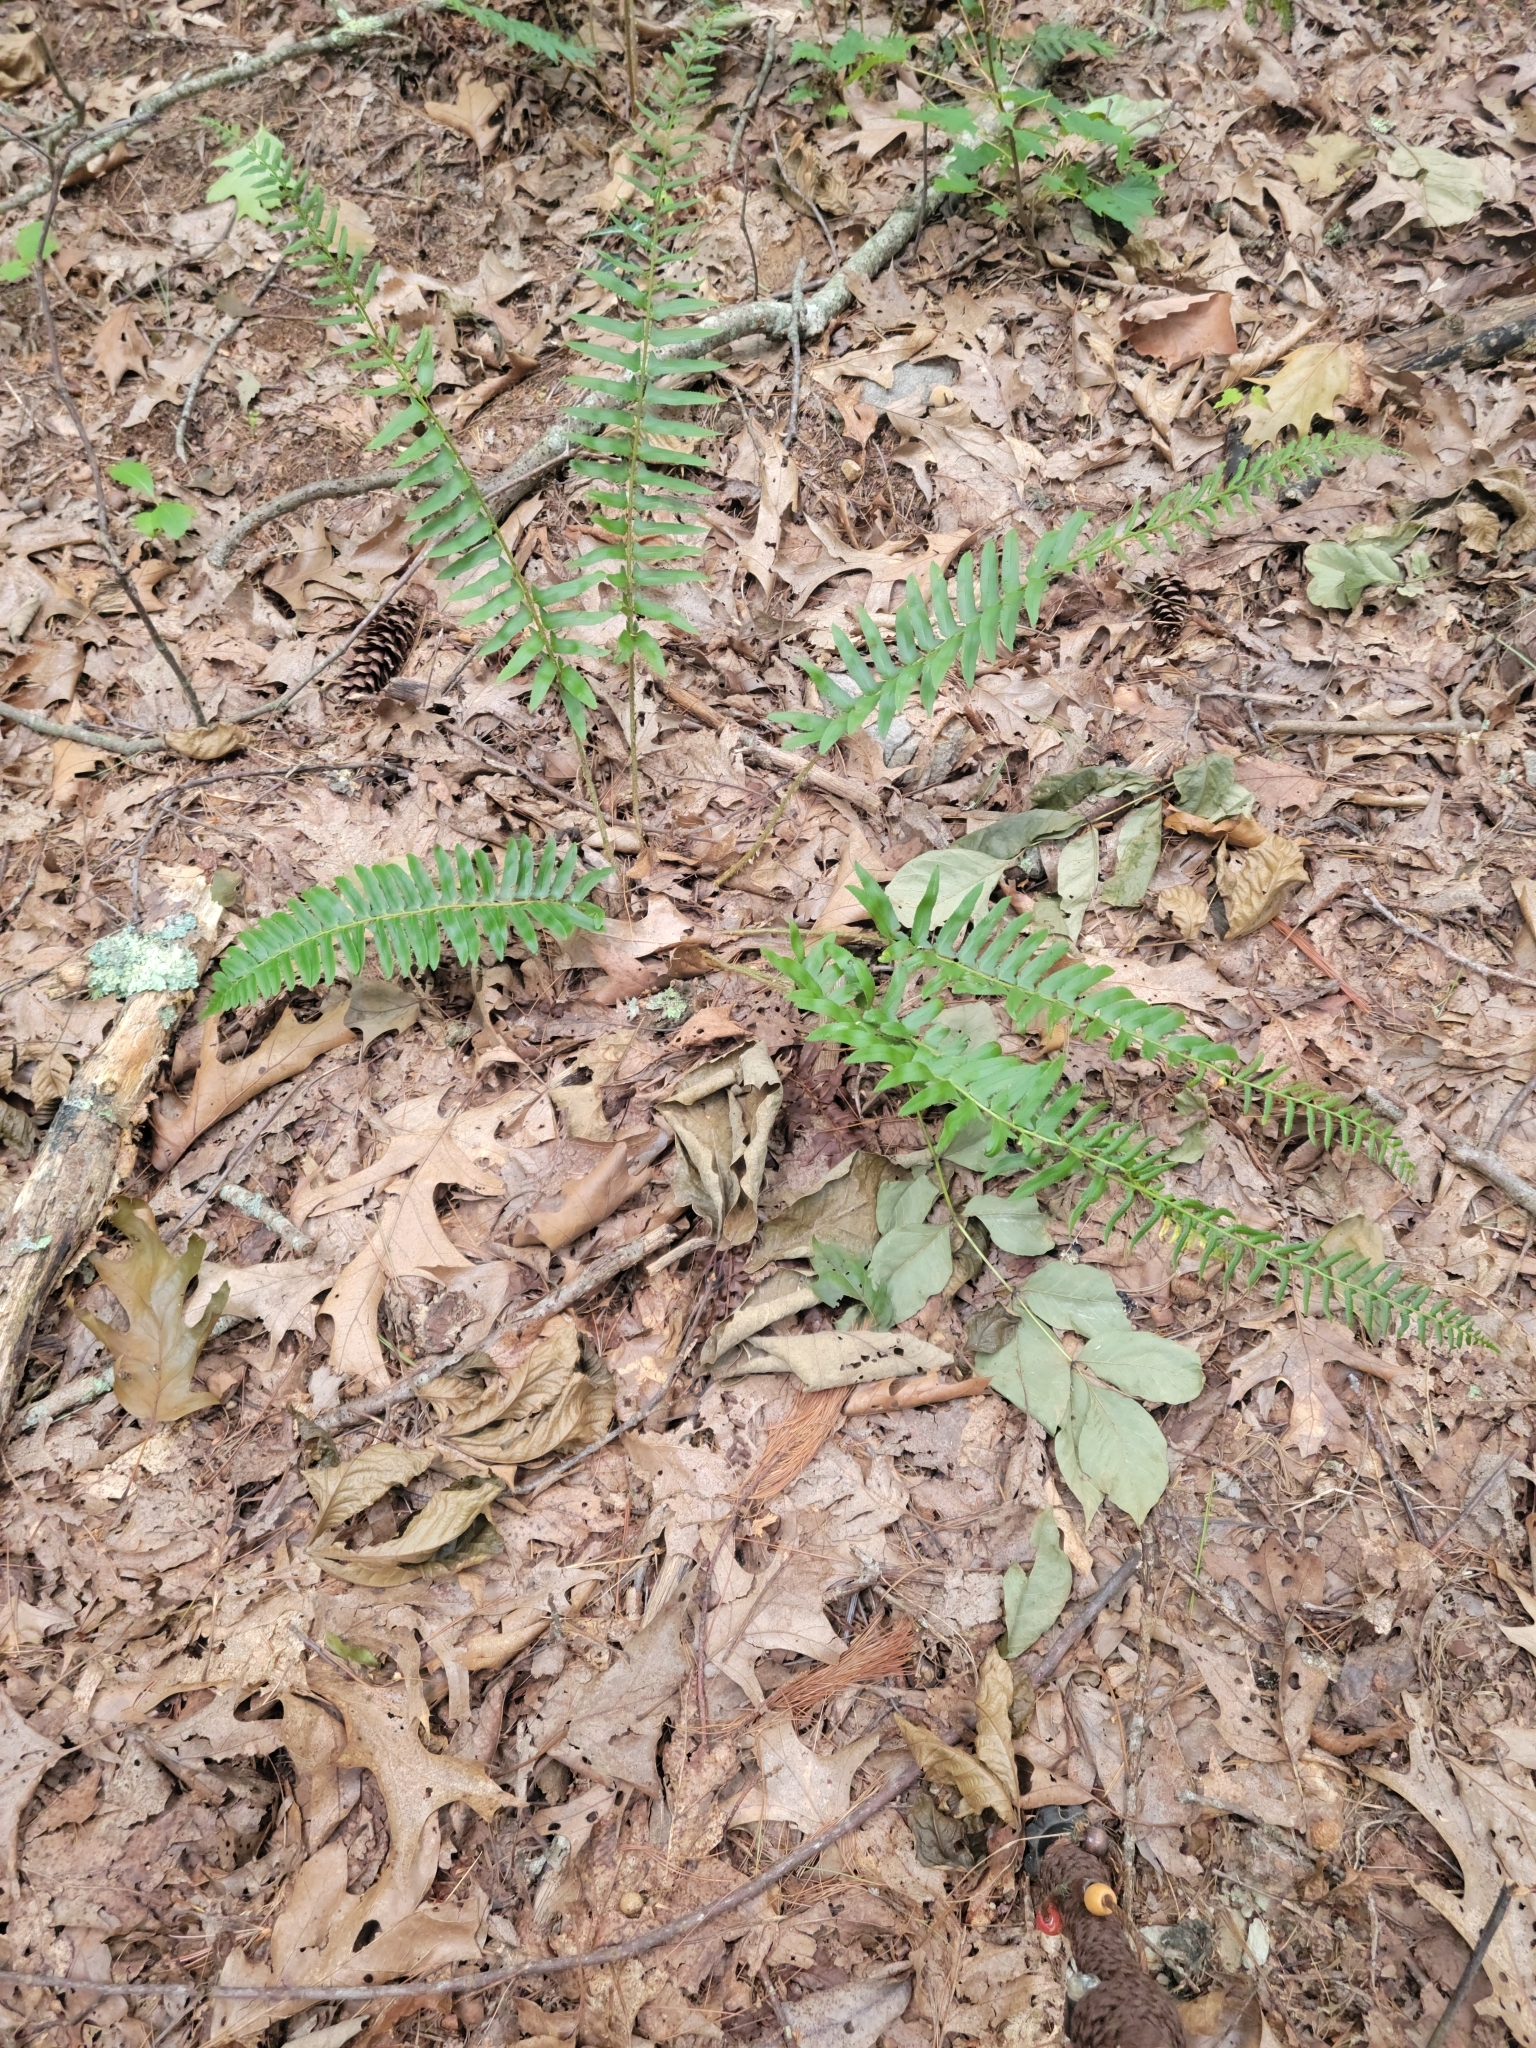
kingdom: Plantae
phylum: Tracheophyta
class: Polypodiopsida
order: Polypodiales
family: Dryopteridaceae
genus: Polystichum
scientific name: Polystichum acrostichoides
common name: Christmas fern
